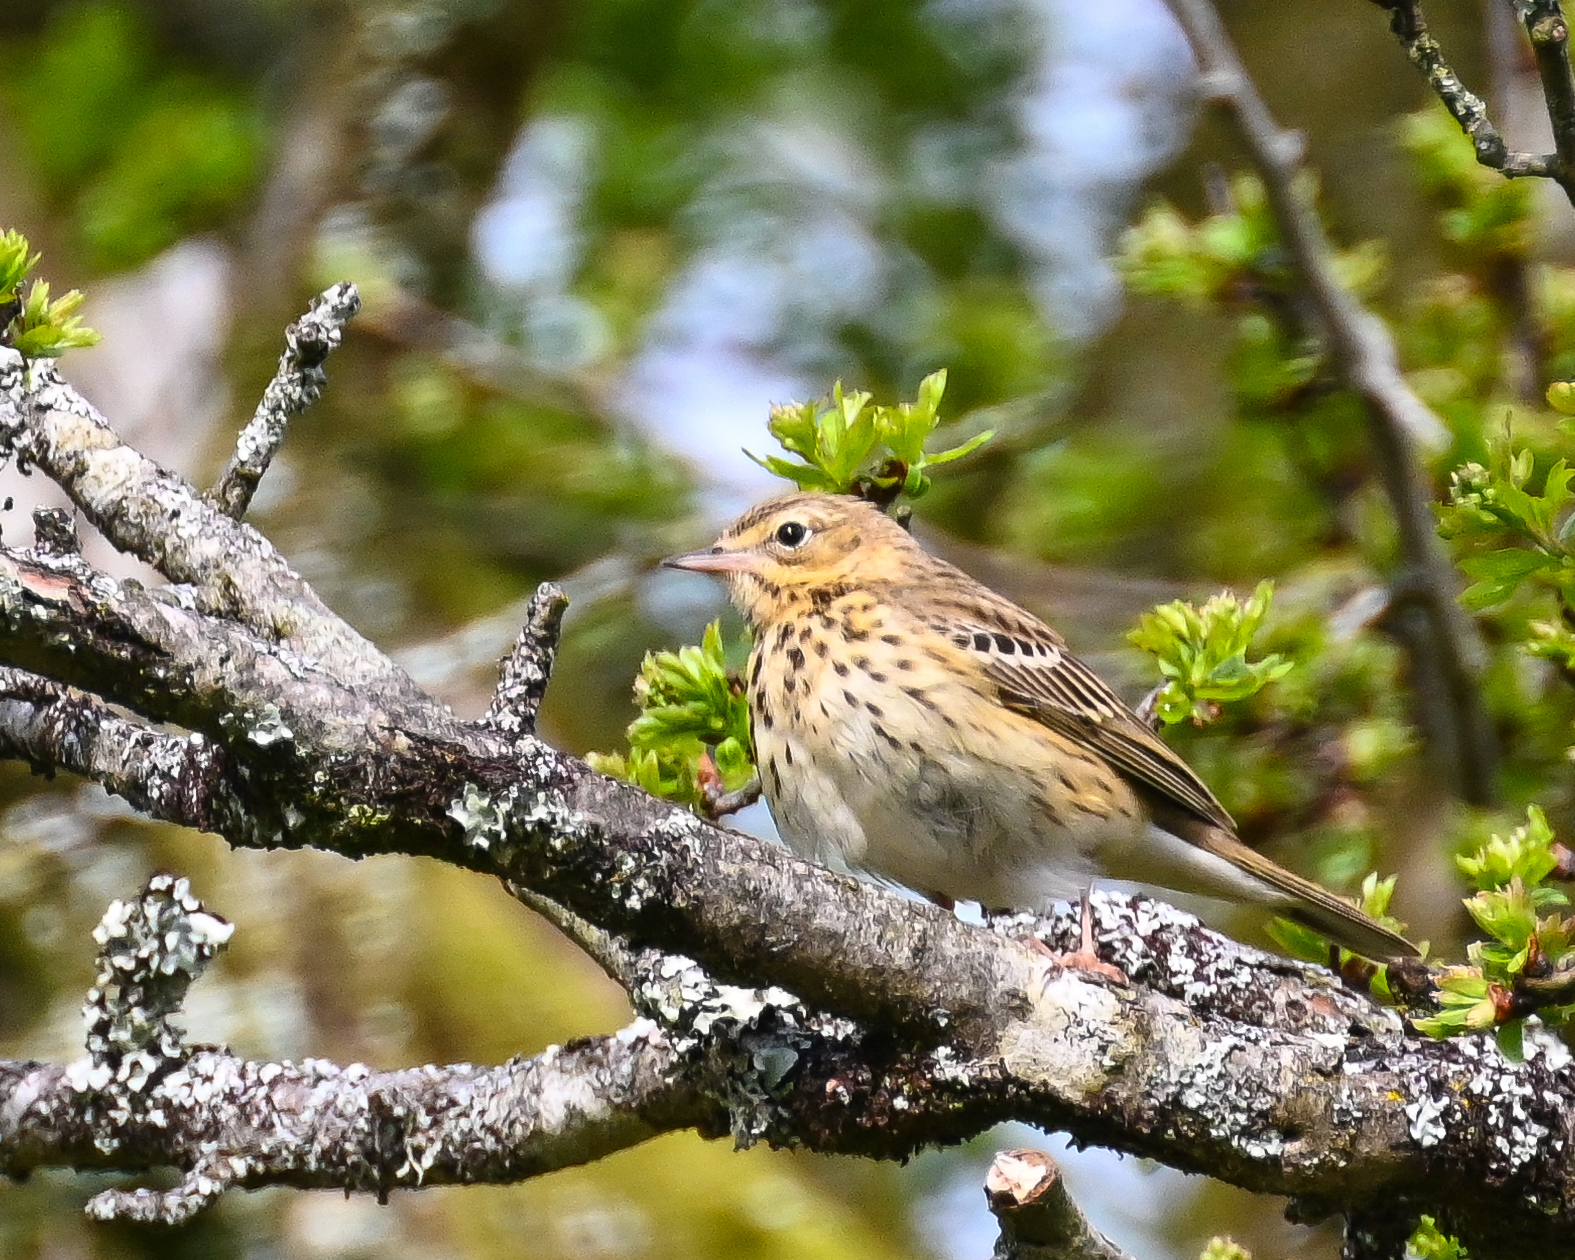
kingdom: Animalia
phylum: Chordata
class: Aves
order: Passeriformes
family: Motacillidae
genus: Anthus
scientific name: Anthus trivialis
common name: Tree pipit
